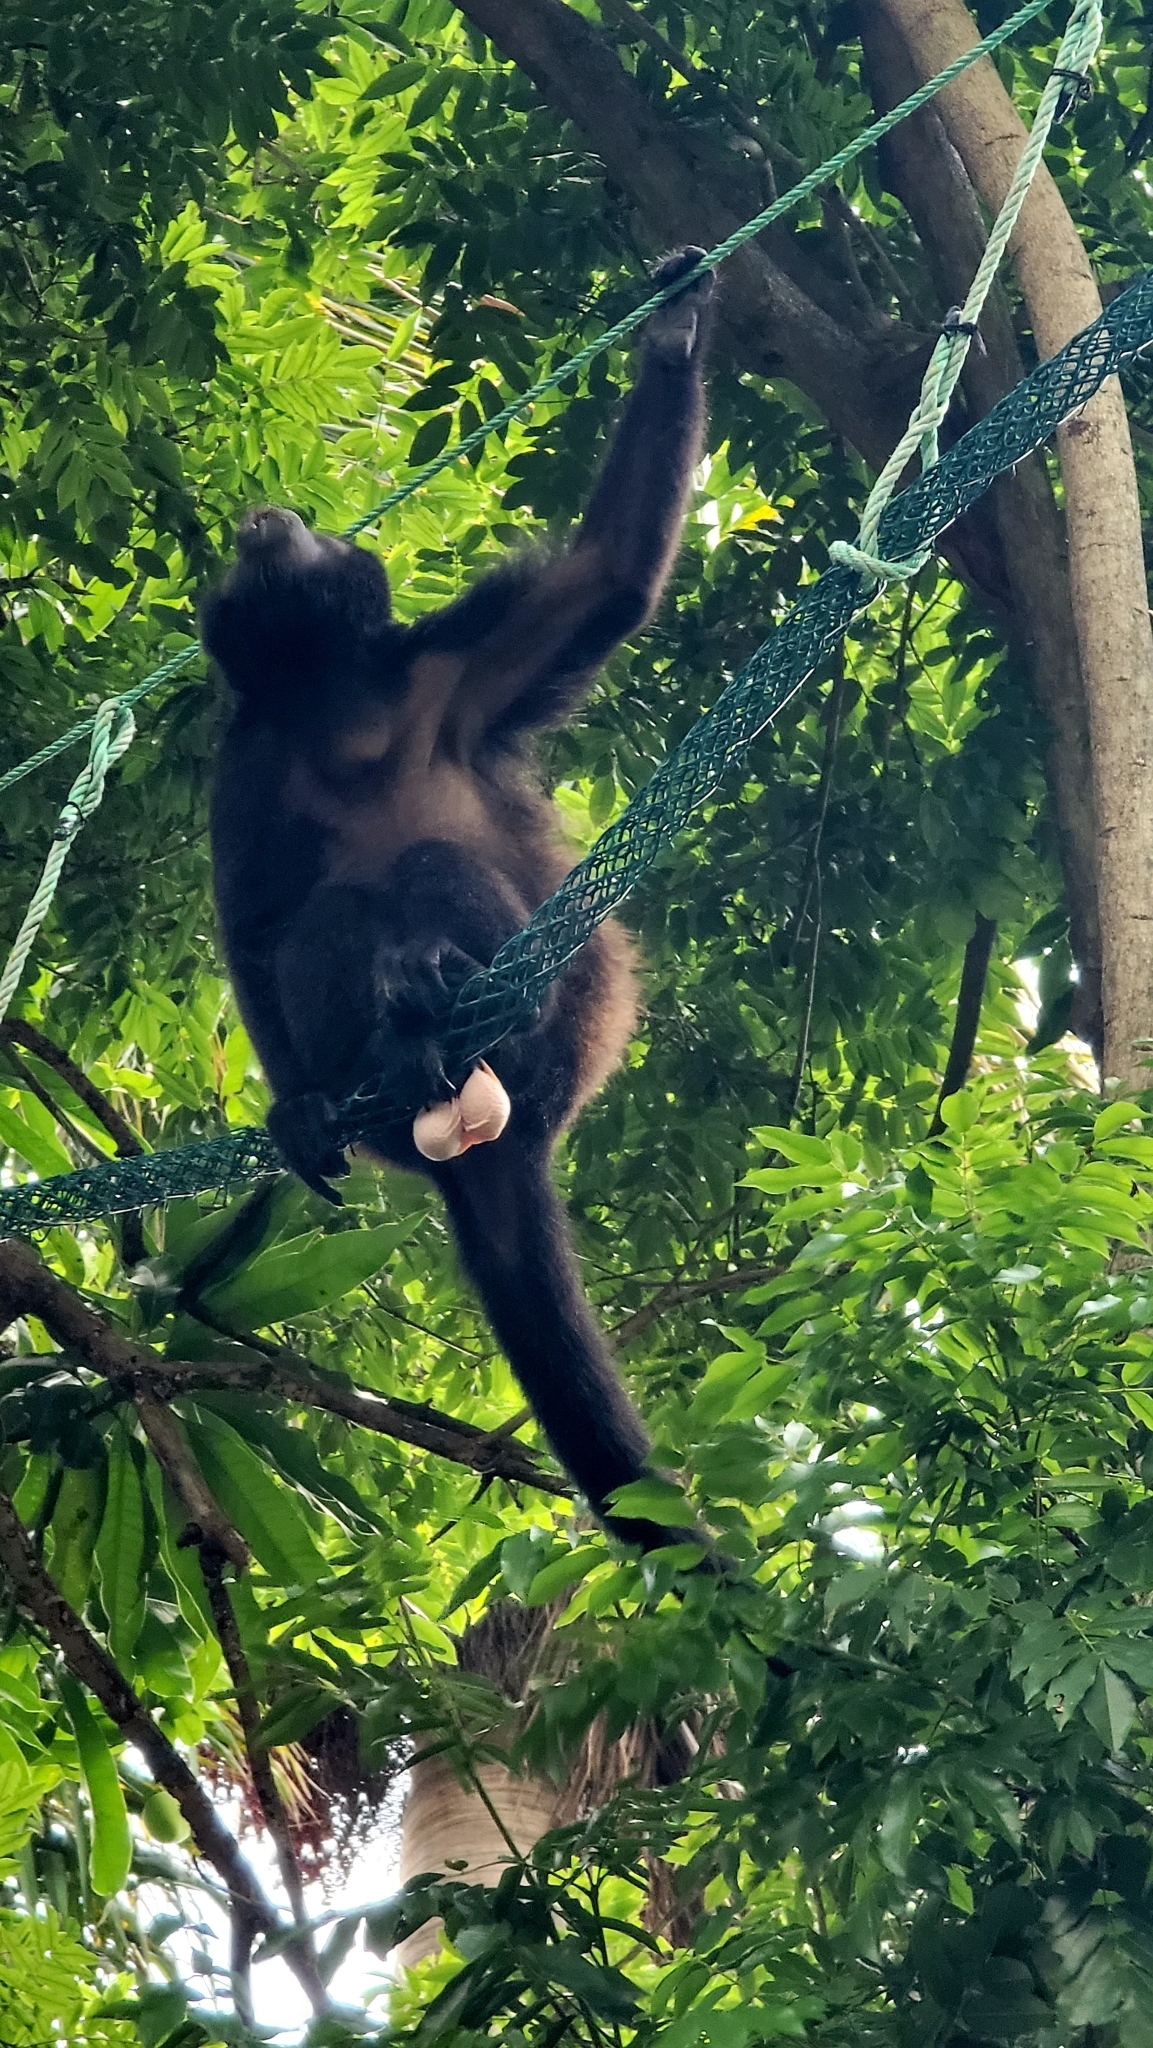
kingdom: Animalia
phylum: Chordata
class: Mammalia
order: Primates
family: Atelidae
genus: Alouatta
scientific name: Alouatta palliata
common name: Mantled howler
